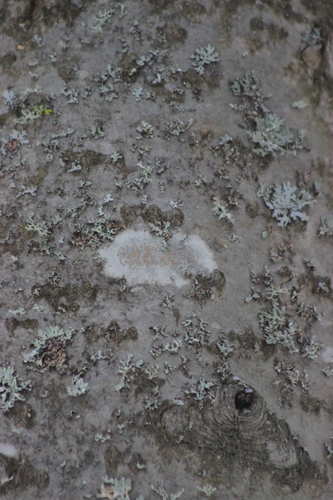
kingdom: Fungi
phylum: Ascomycota
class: Lecanoromycetes
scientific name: Lecanoromycetes
